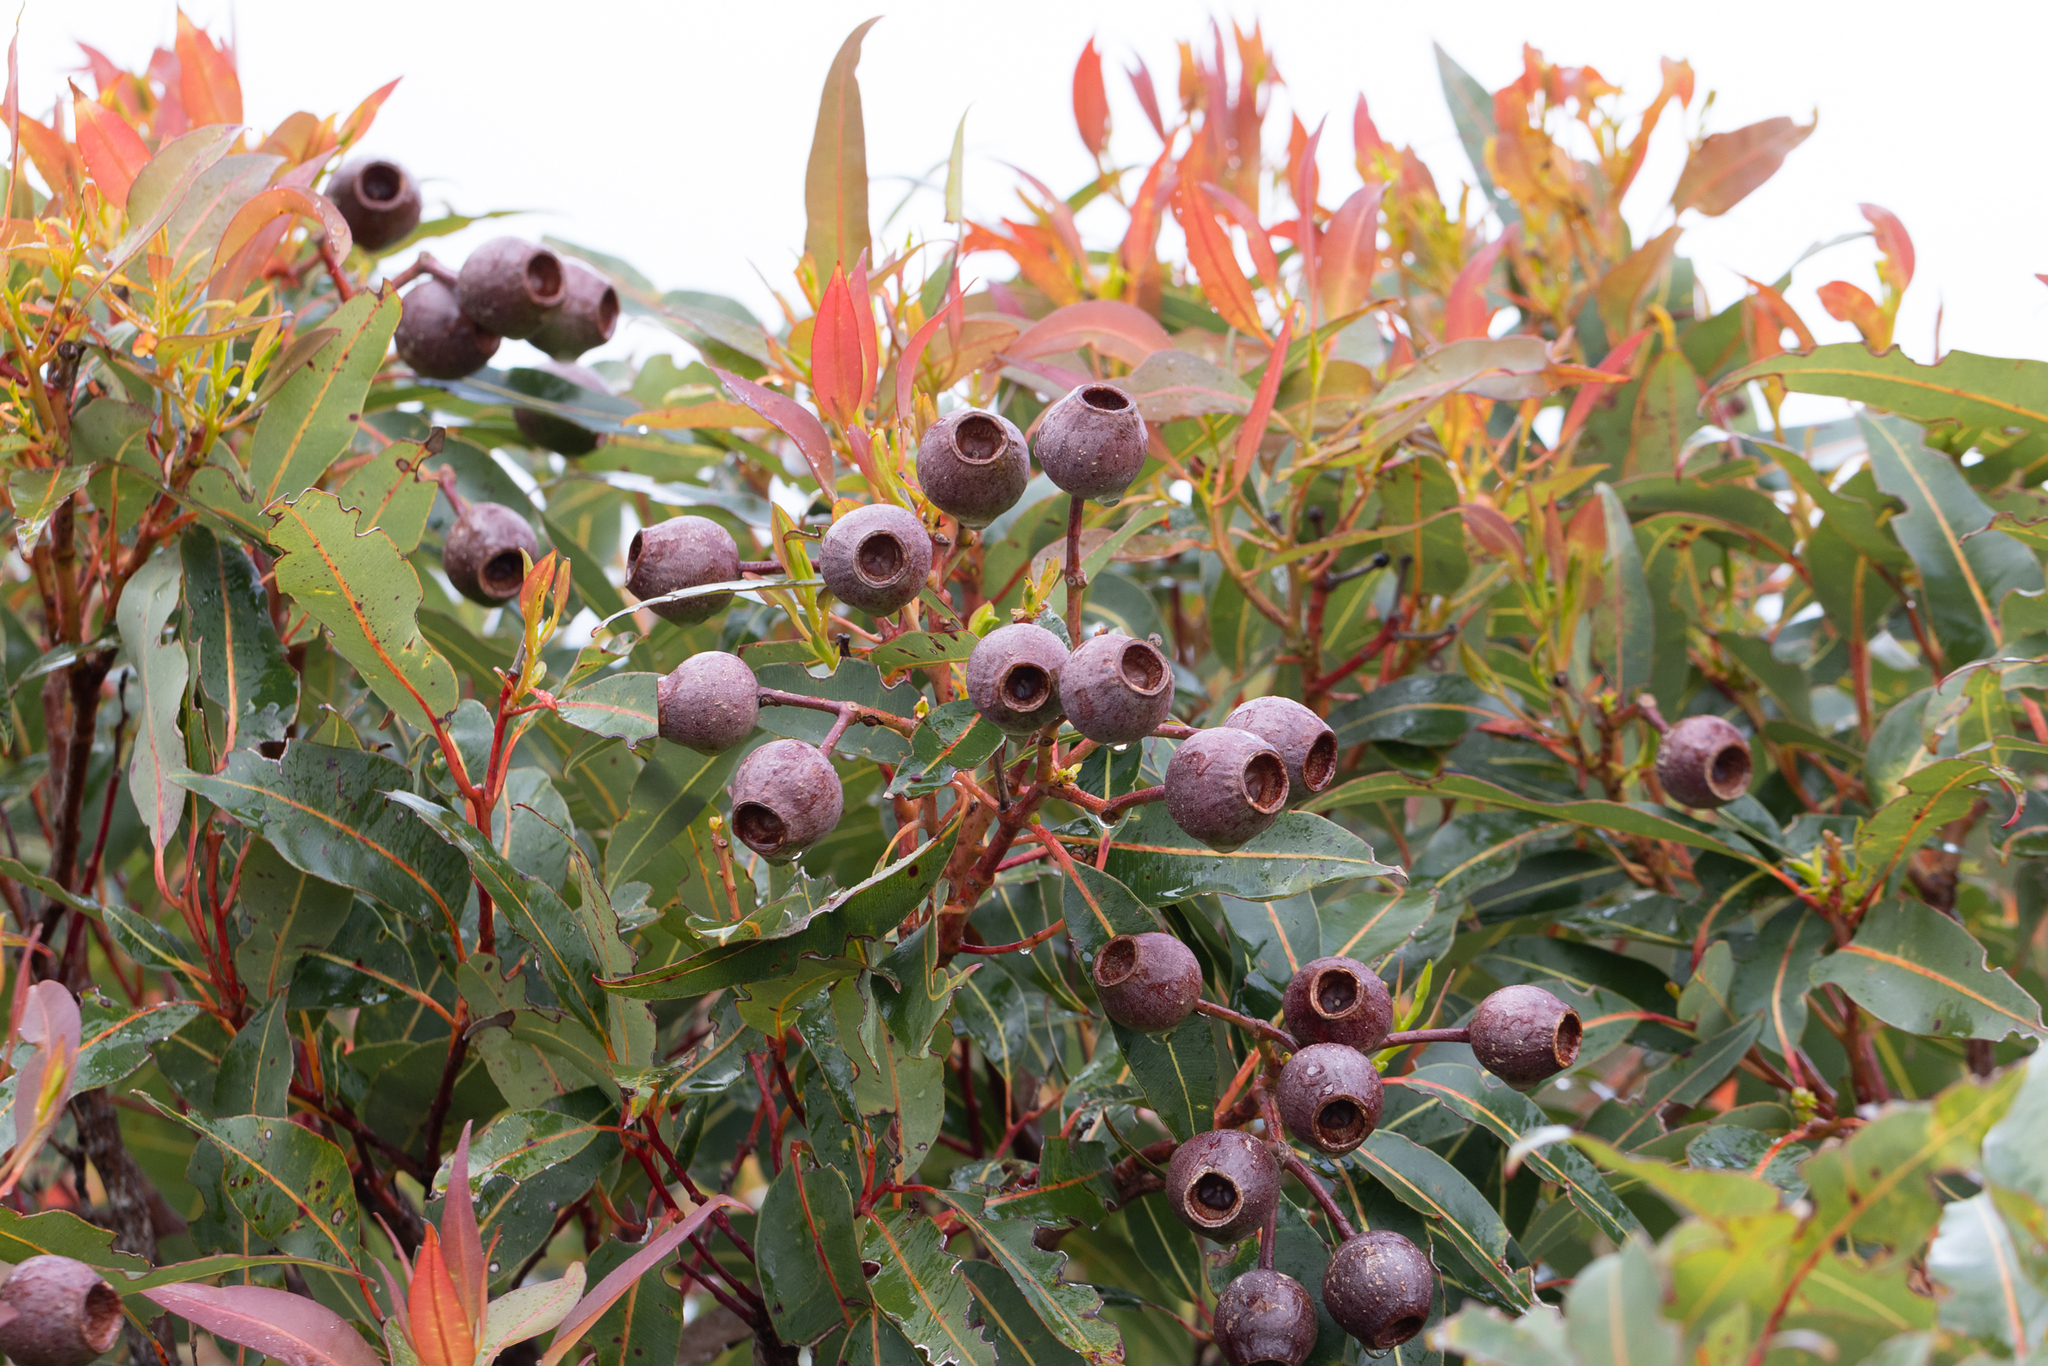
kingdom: Plantae
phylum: Tracheophyta
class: Magnoliopsida
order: Myrtales
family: Myrtaceae
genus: Corymbia
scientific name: Corymbia ficifolia
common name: Redflower gum
